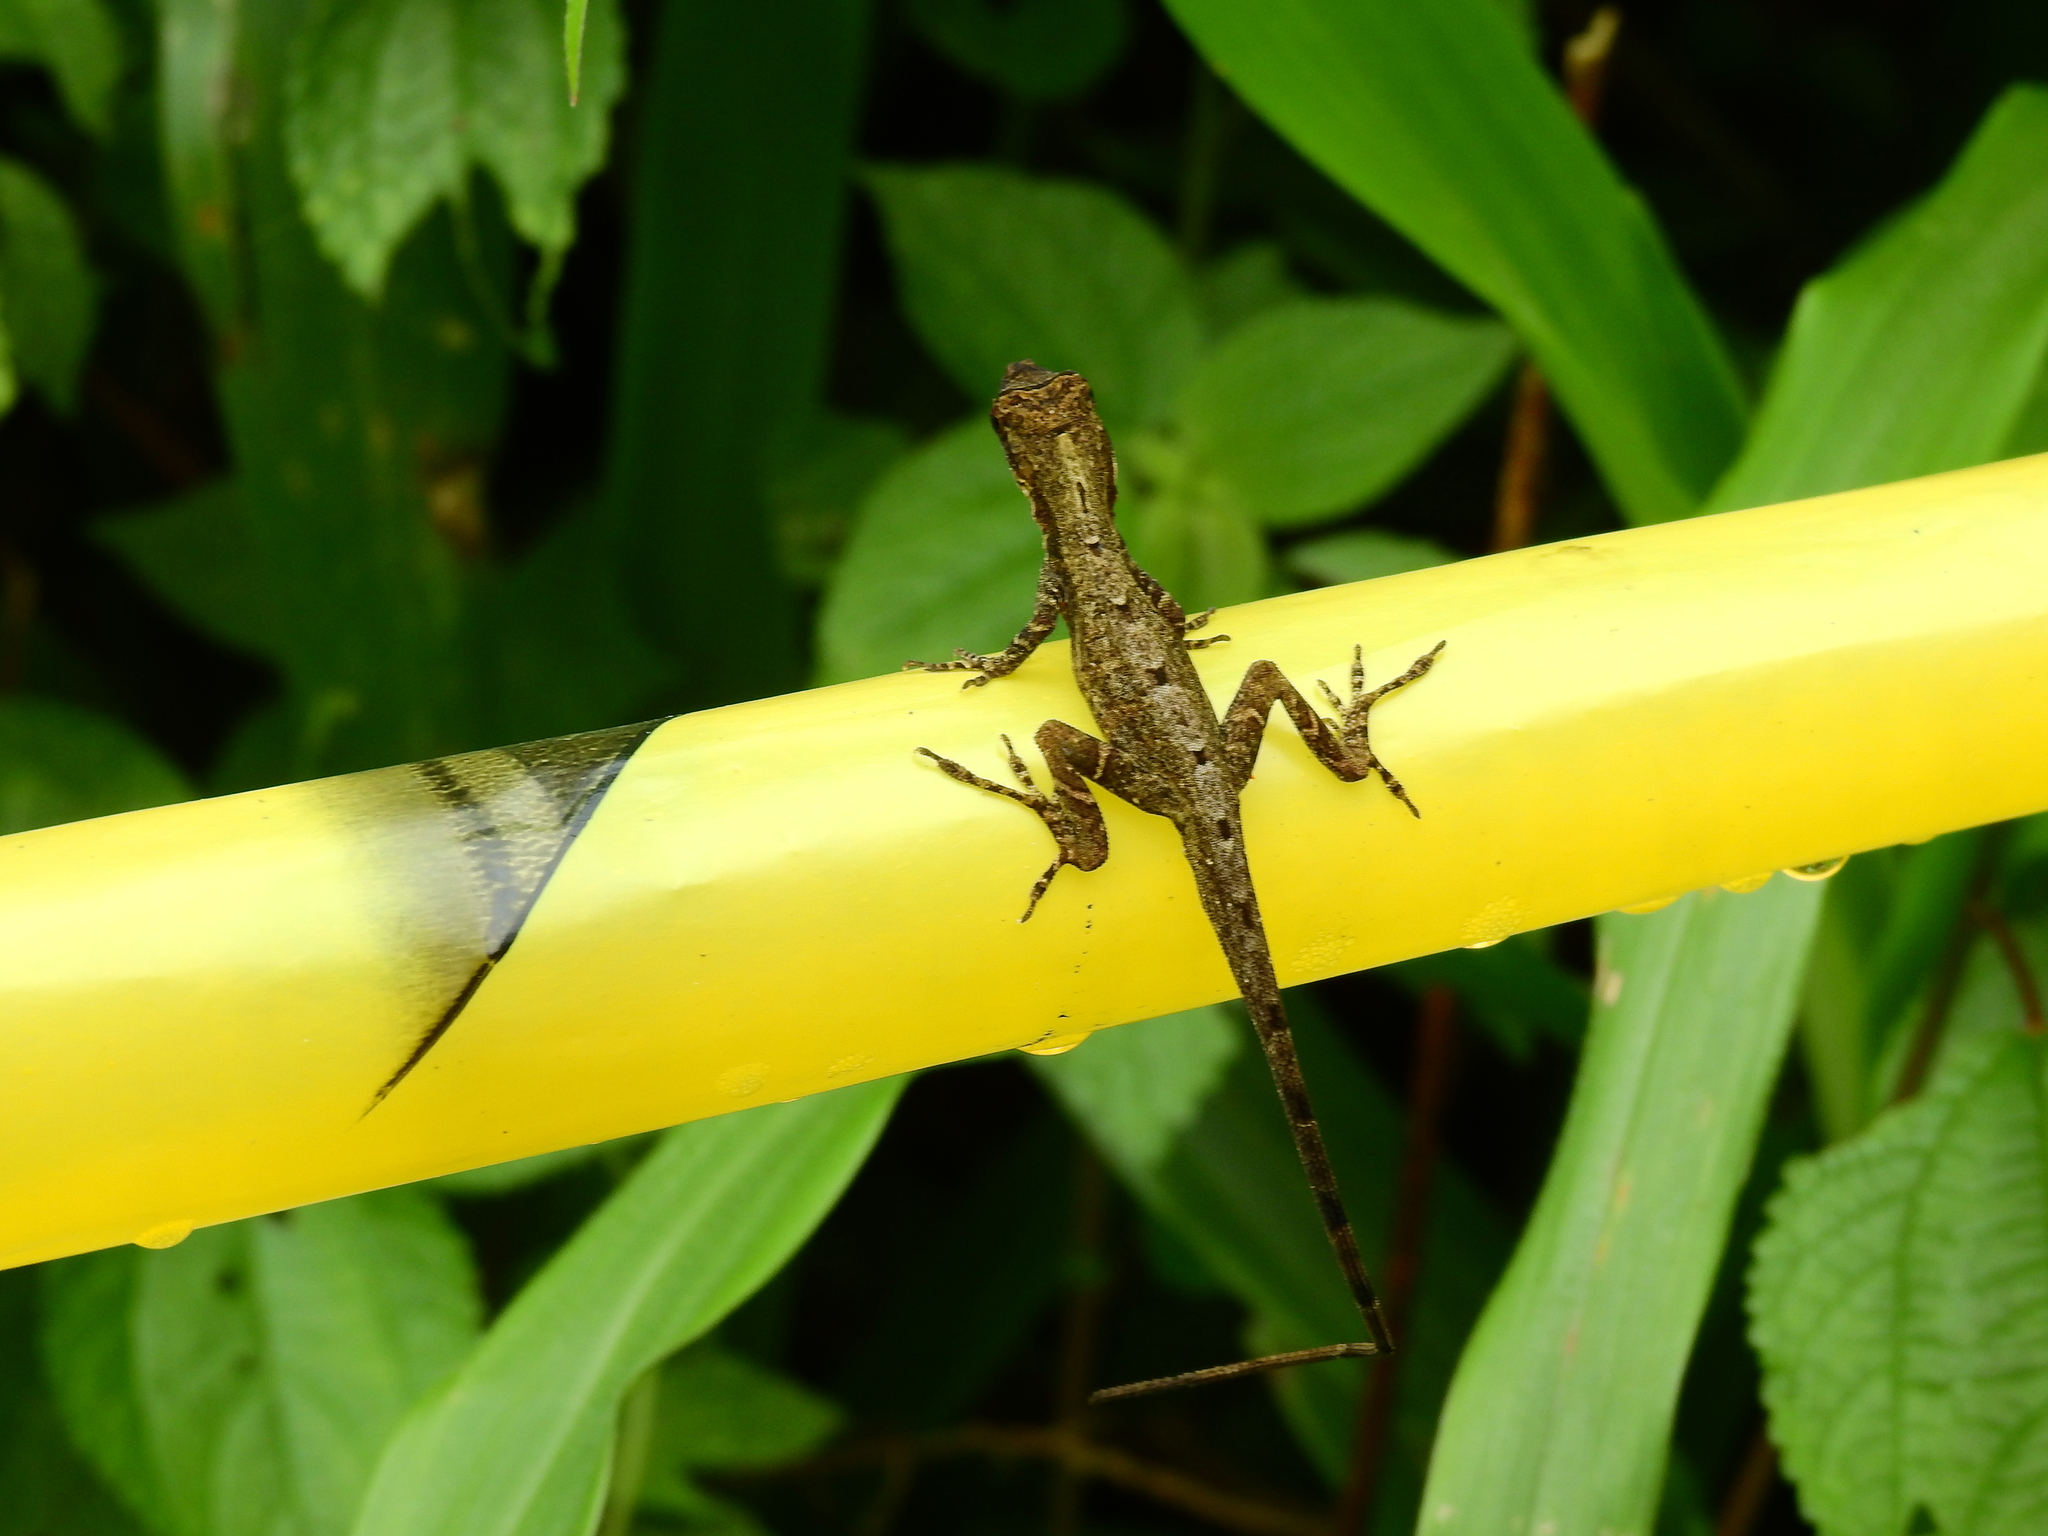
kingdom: Animalia
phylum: Chordata
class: Squamata
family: Dactyloidae
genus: Anolis
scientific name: Anolis antonii
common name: Anton's anole
